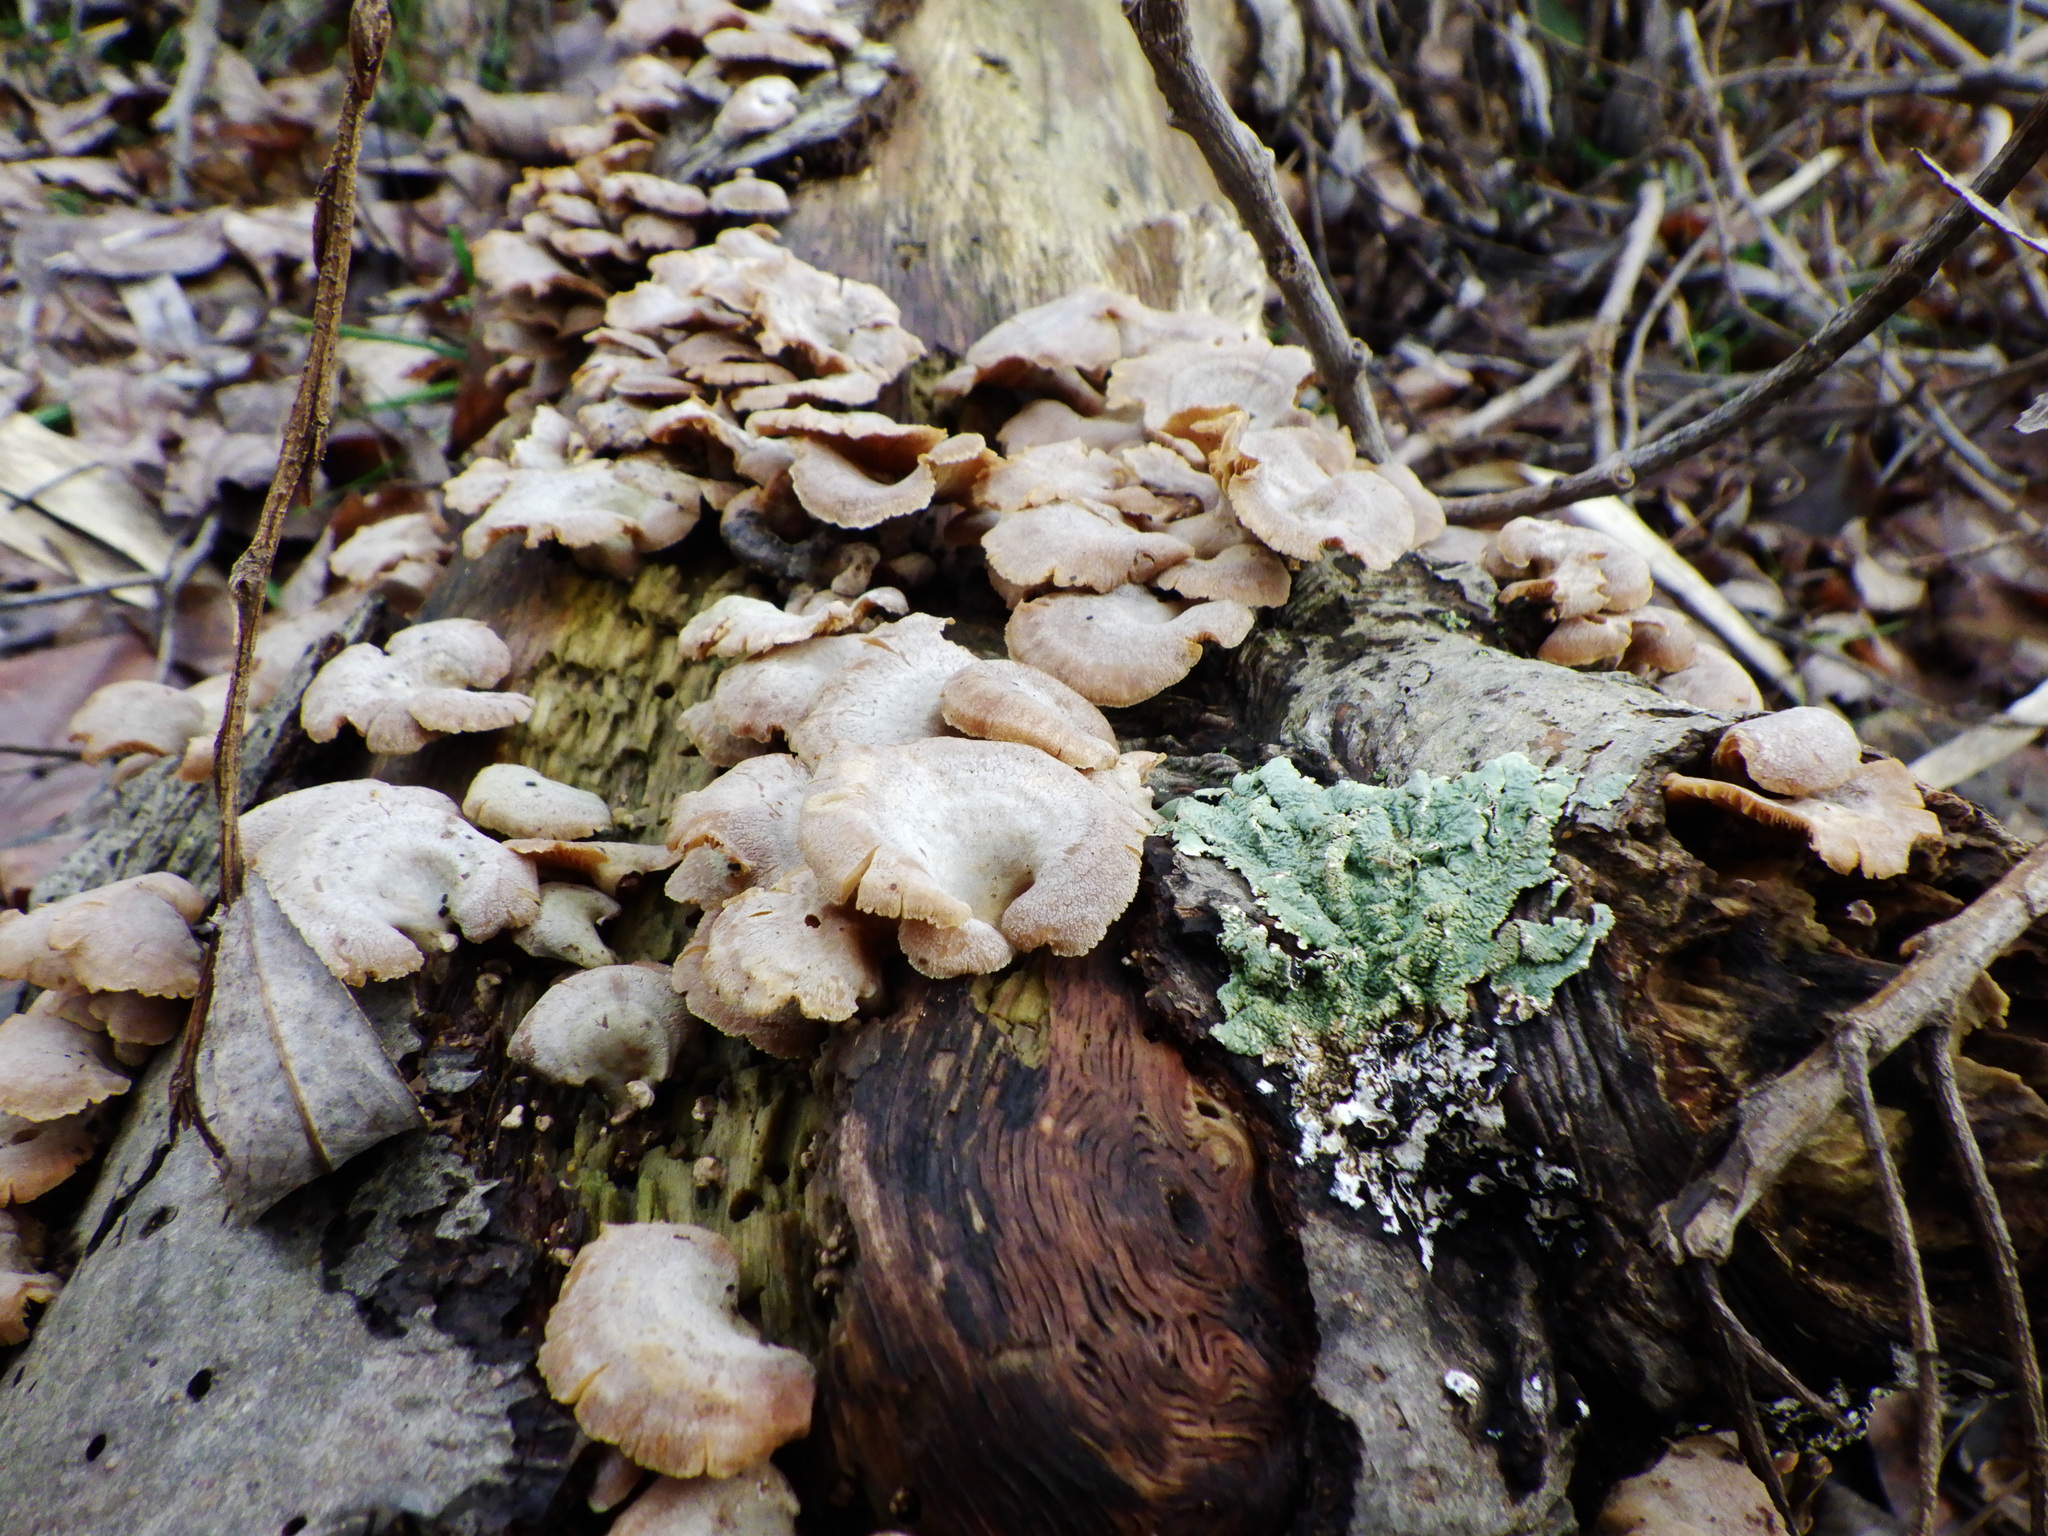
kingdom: Fungi
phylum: Basidiomycota
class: Agaricomycetes
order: Agaricales
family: Mycenaceae
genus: Panellus
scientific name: Panellus stipticus
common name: Bitter oysterling
